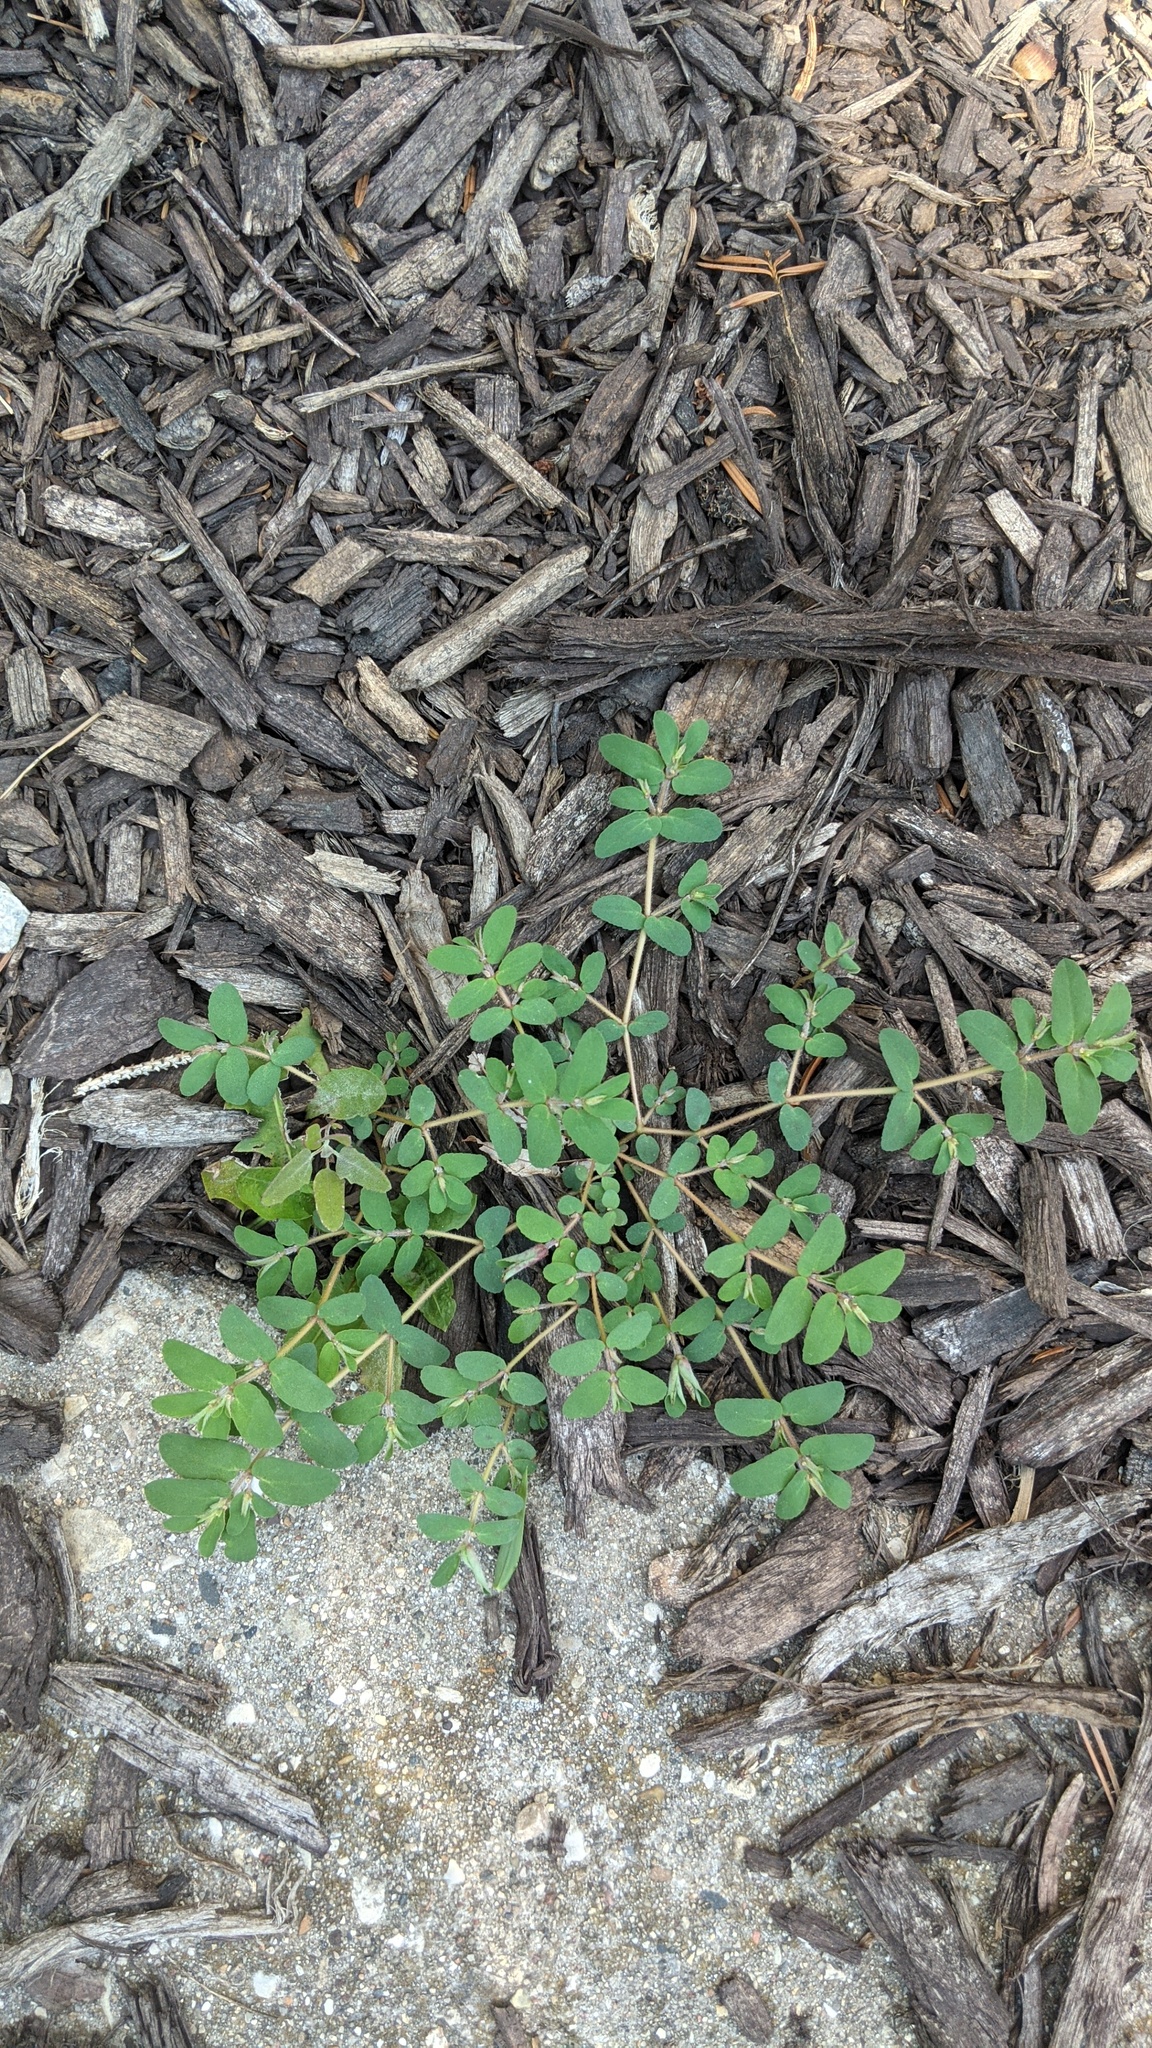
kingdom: Plantae
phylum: Tracheophyta
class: Magnoliopsida
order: Malpighiales
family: Euphorbiaceae
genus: Euphorbia
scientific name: Euphorbia maculata
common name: Spotted spurge
